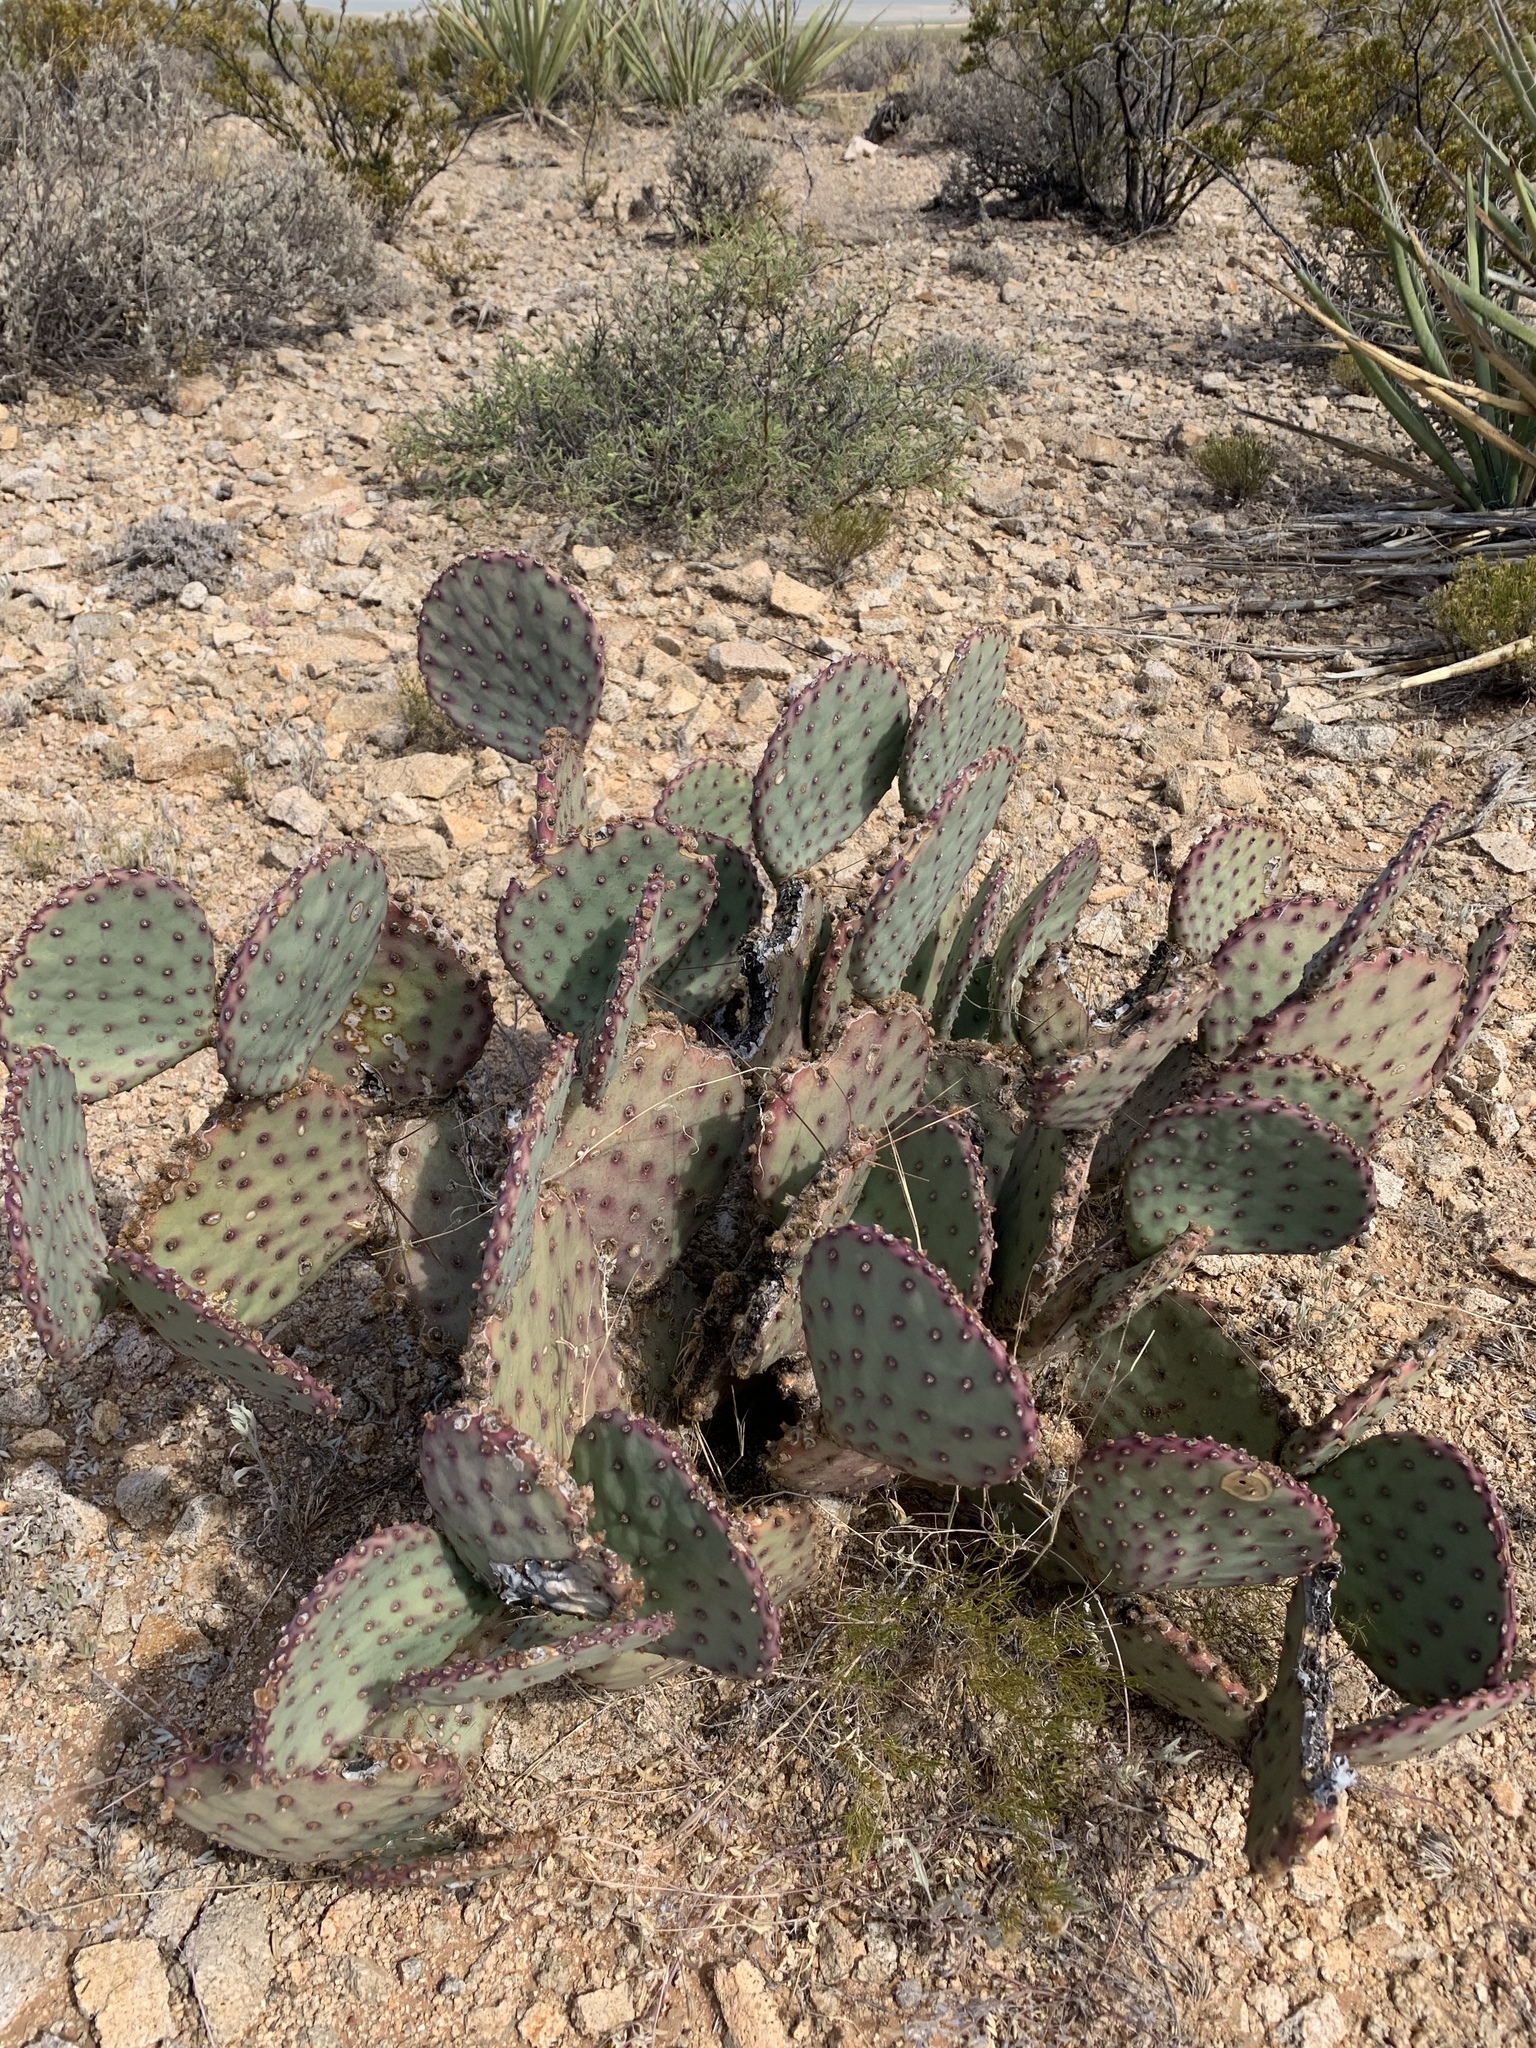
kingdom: Plantae
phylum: Tracheophyta
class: Magnoliopsida
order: Caryophyllales
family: Cactaceae
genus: Opuntia
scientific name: Opuntia macrocentra
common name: Purple prickly-pear
